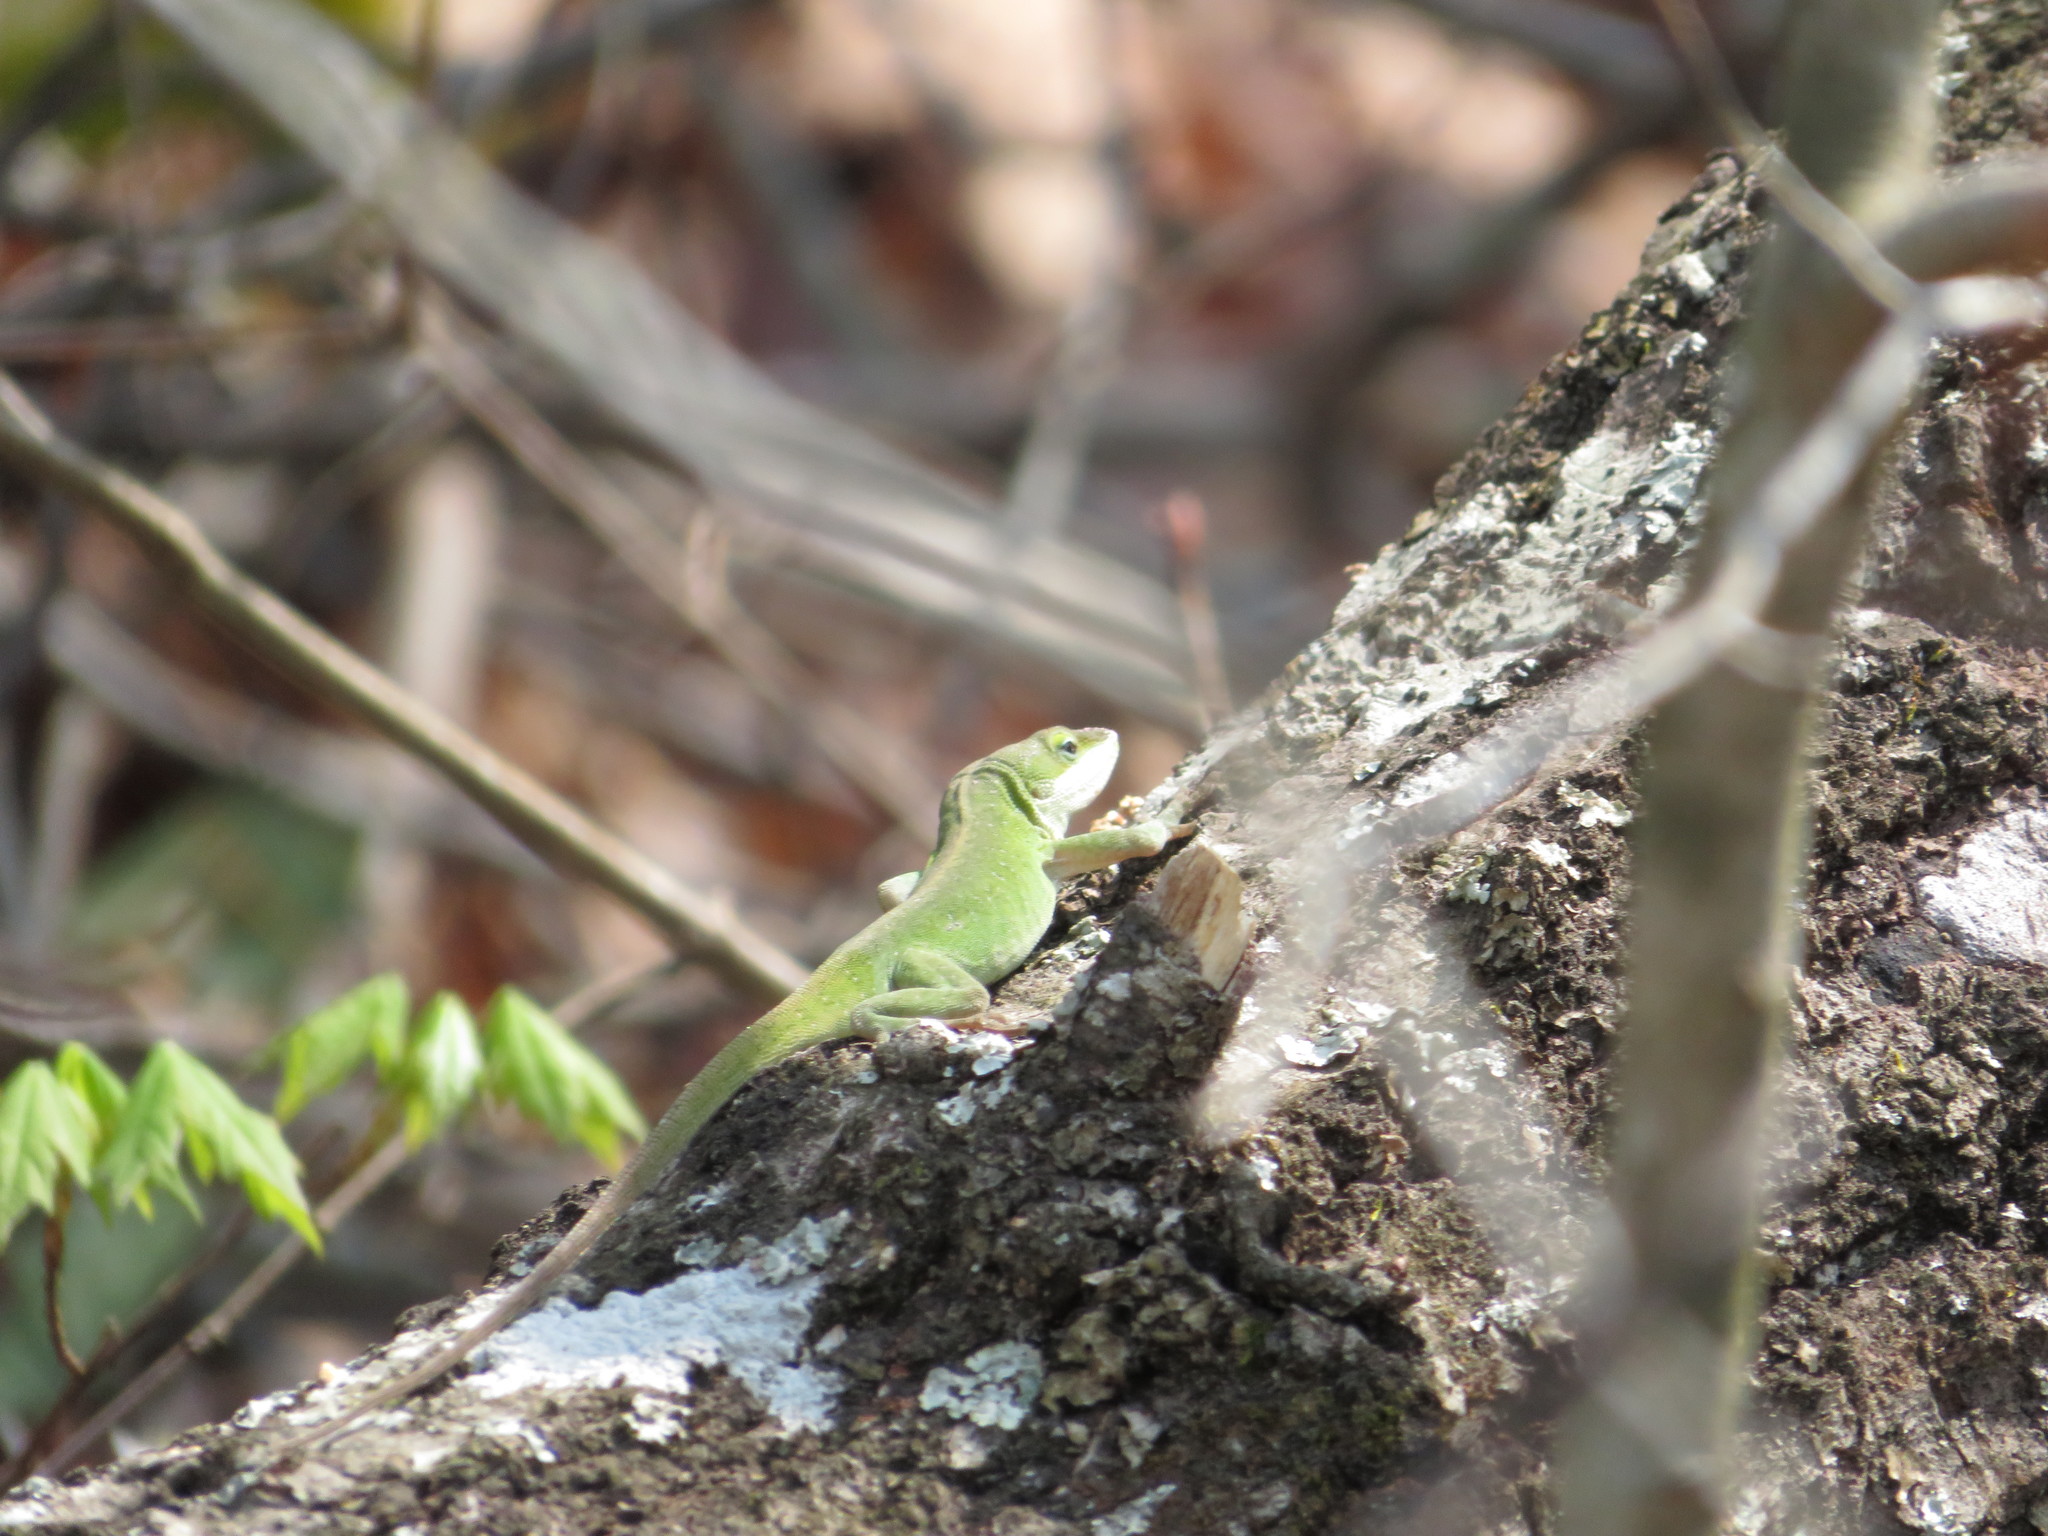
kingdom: Animalia
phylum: Chordata
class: Squamata
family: Dactyloidae
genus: Anolis
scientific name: Anolis carolinensis
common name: Green anole
